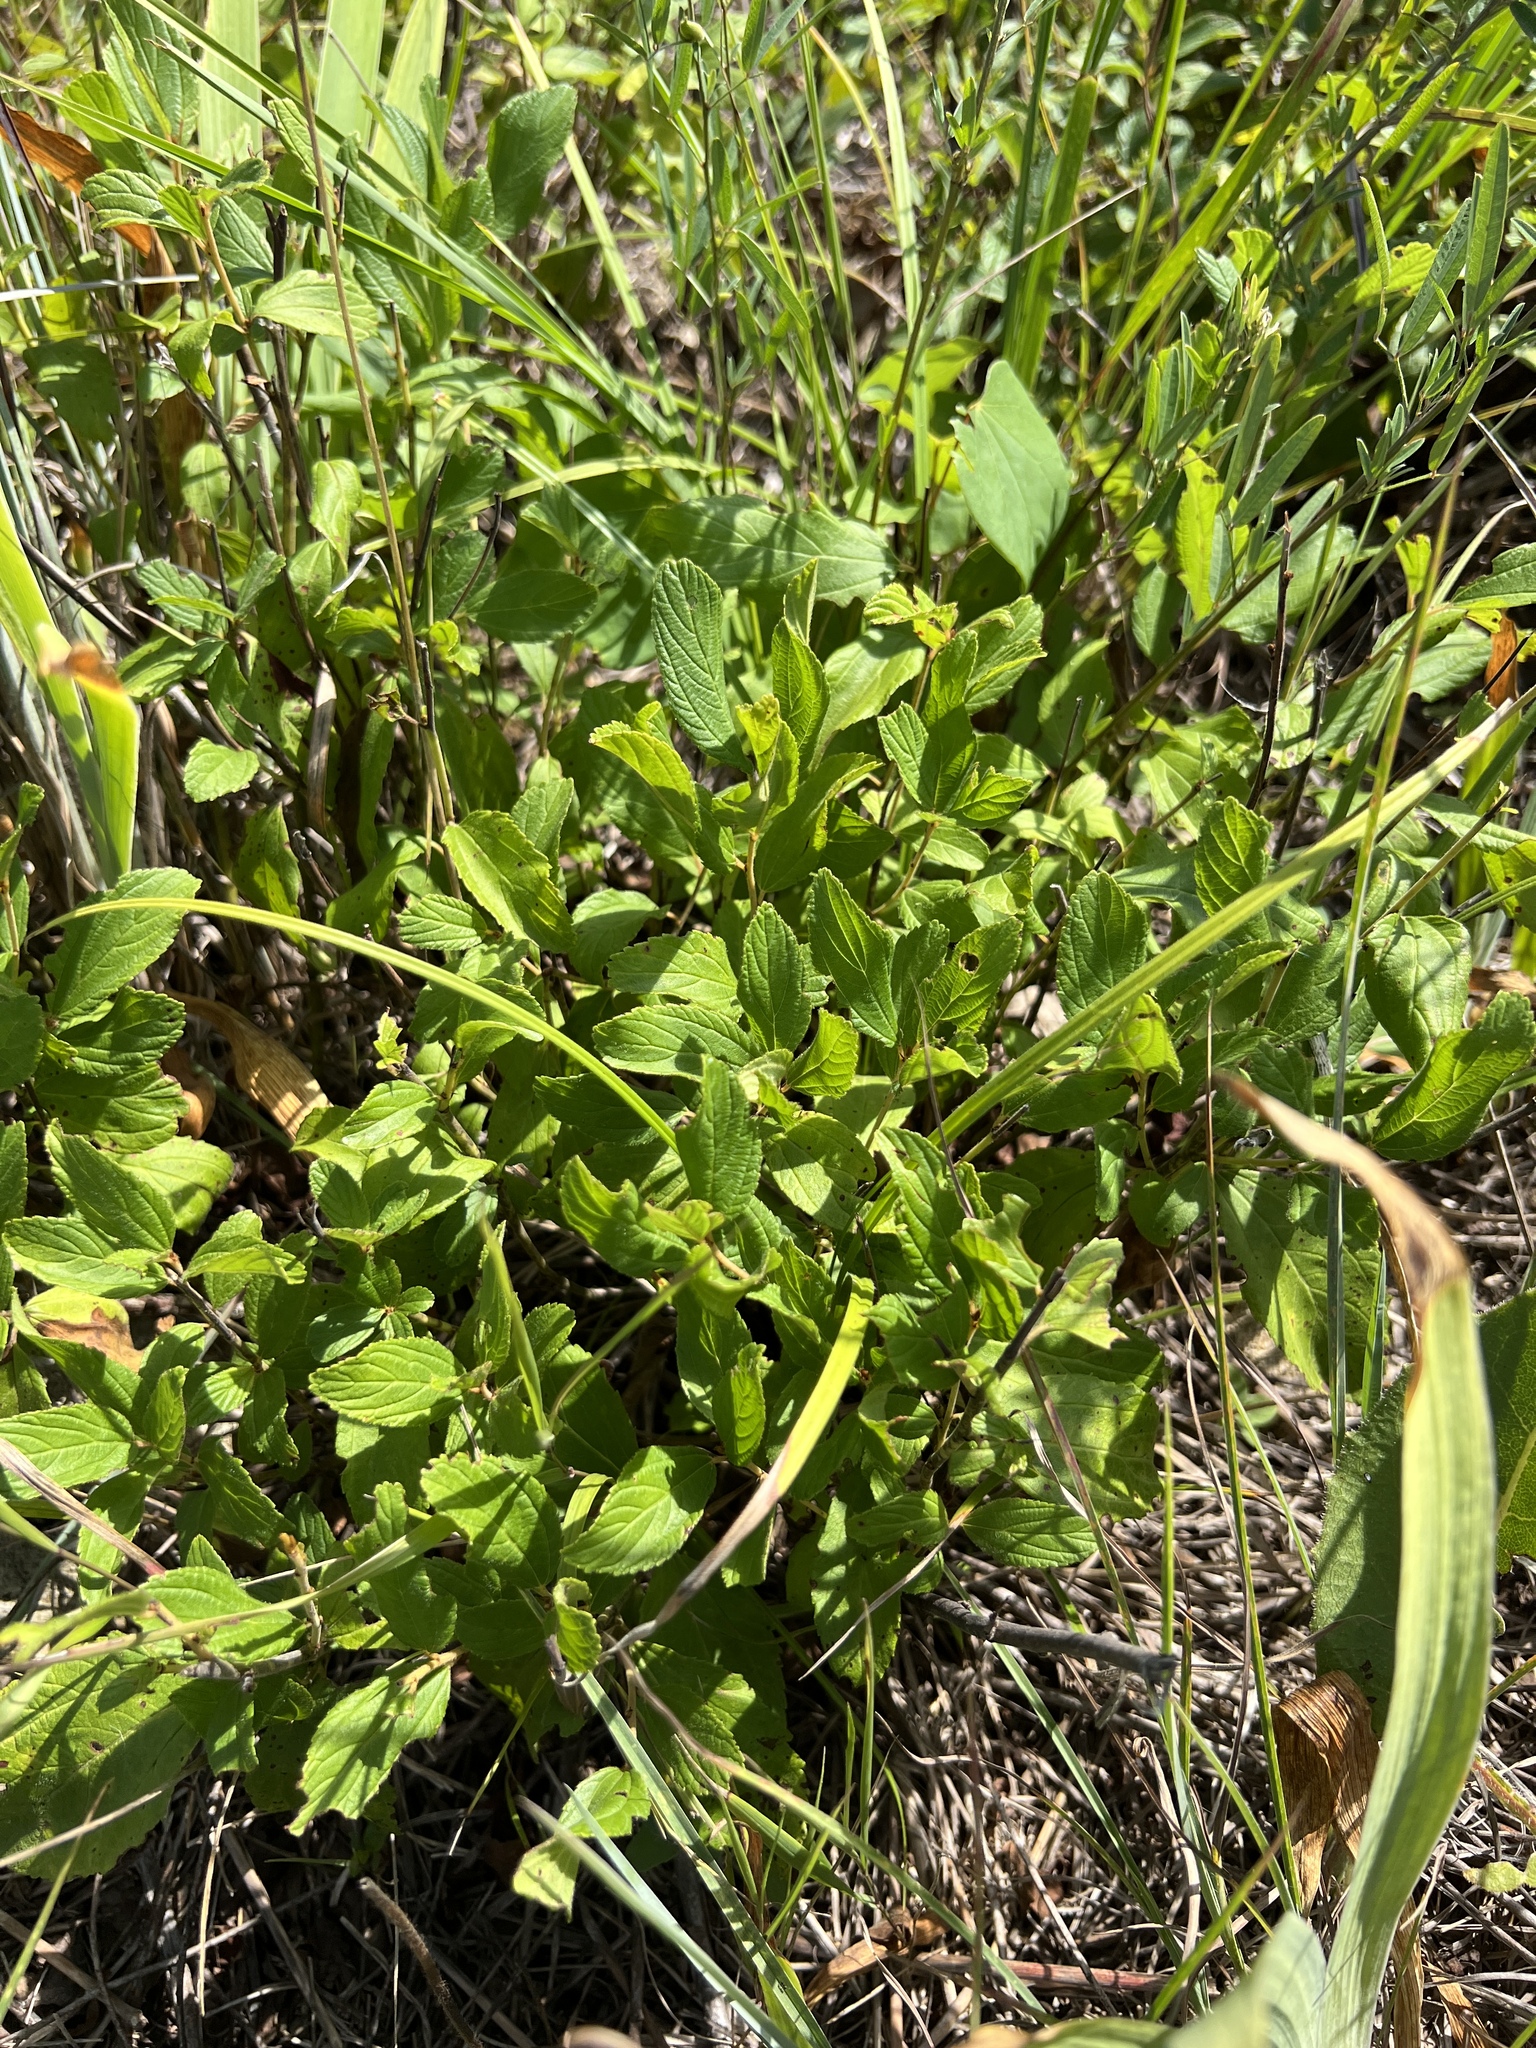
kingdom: Plantae
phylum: Tracheophyta
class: Magnoliopsida
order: Rosales
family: Rhamnaceae
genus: Ceanothus
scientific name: Ceanothus americanus
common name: Redroot
